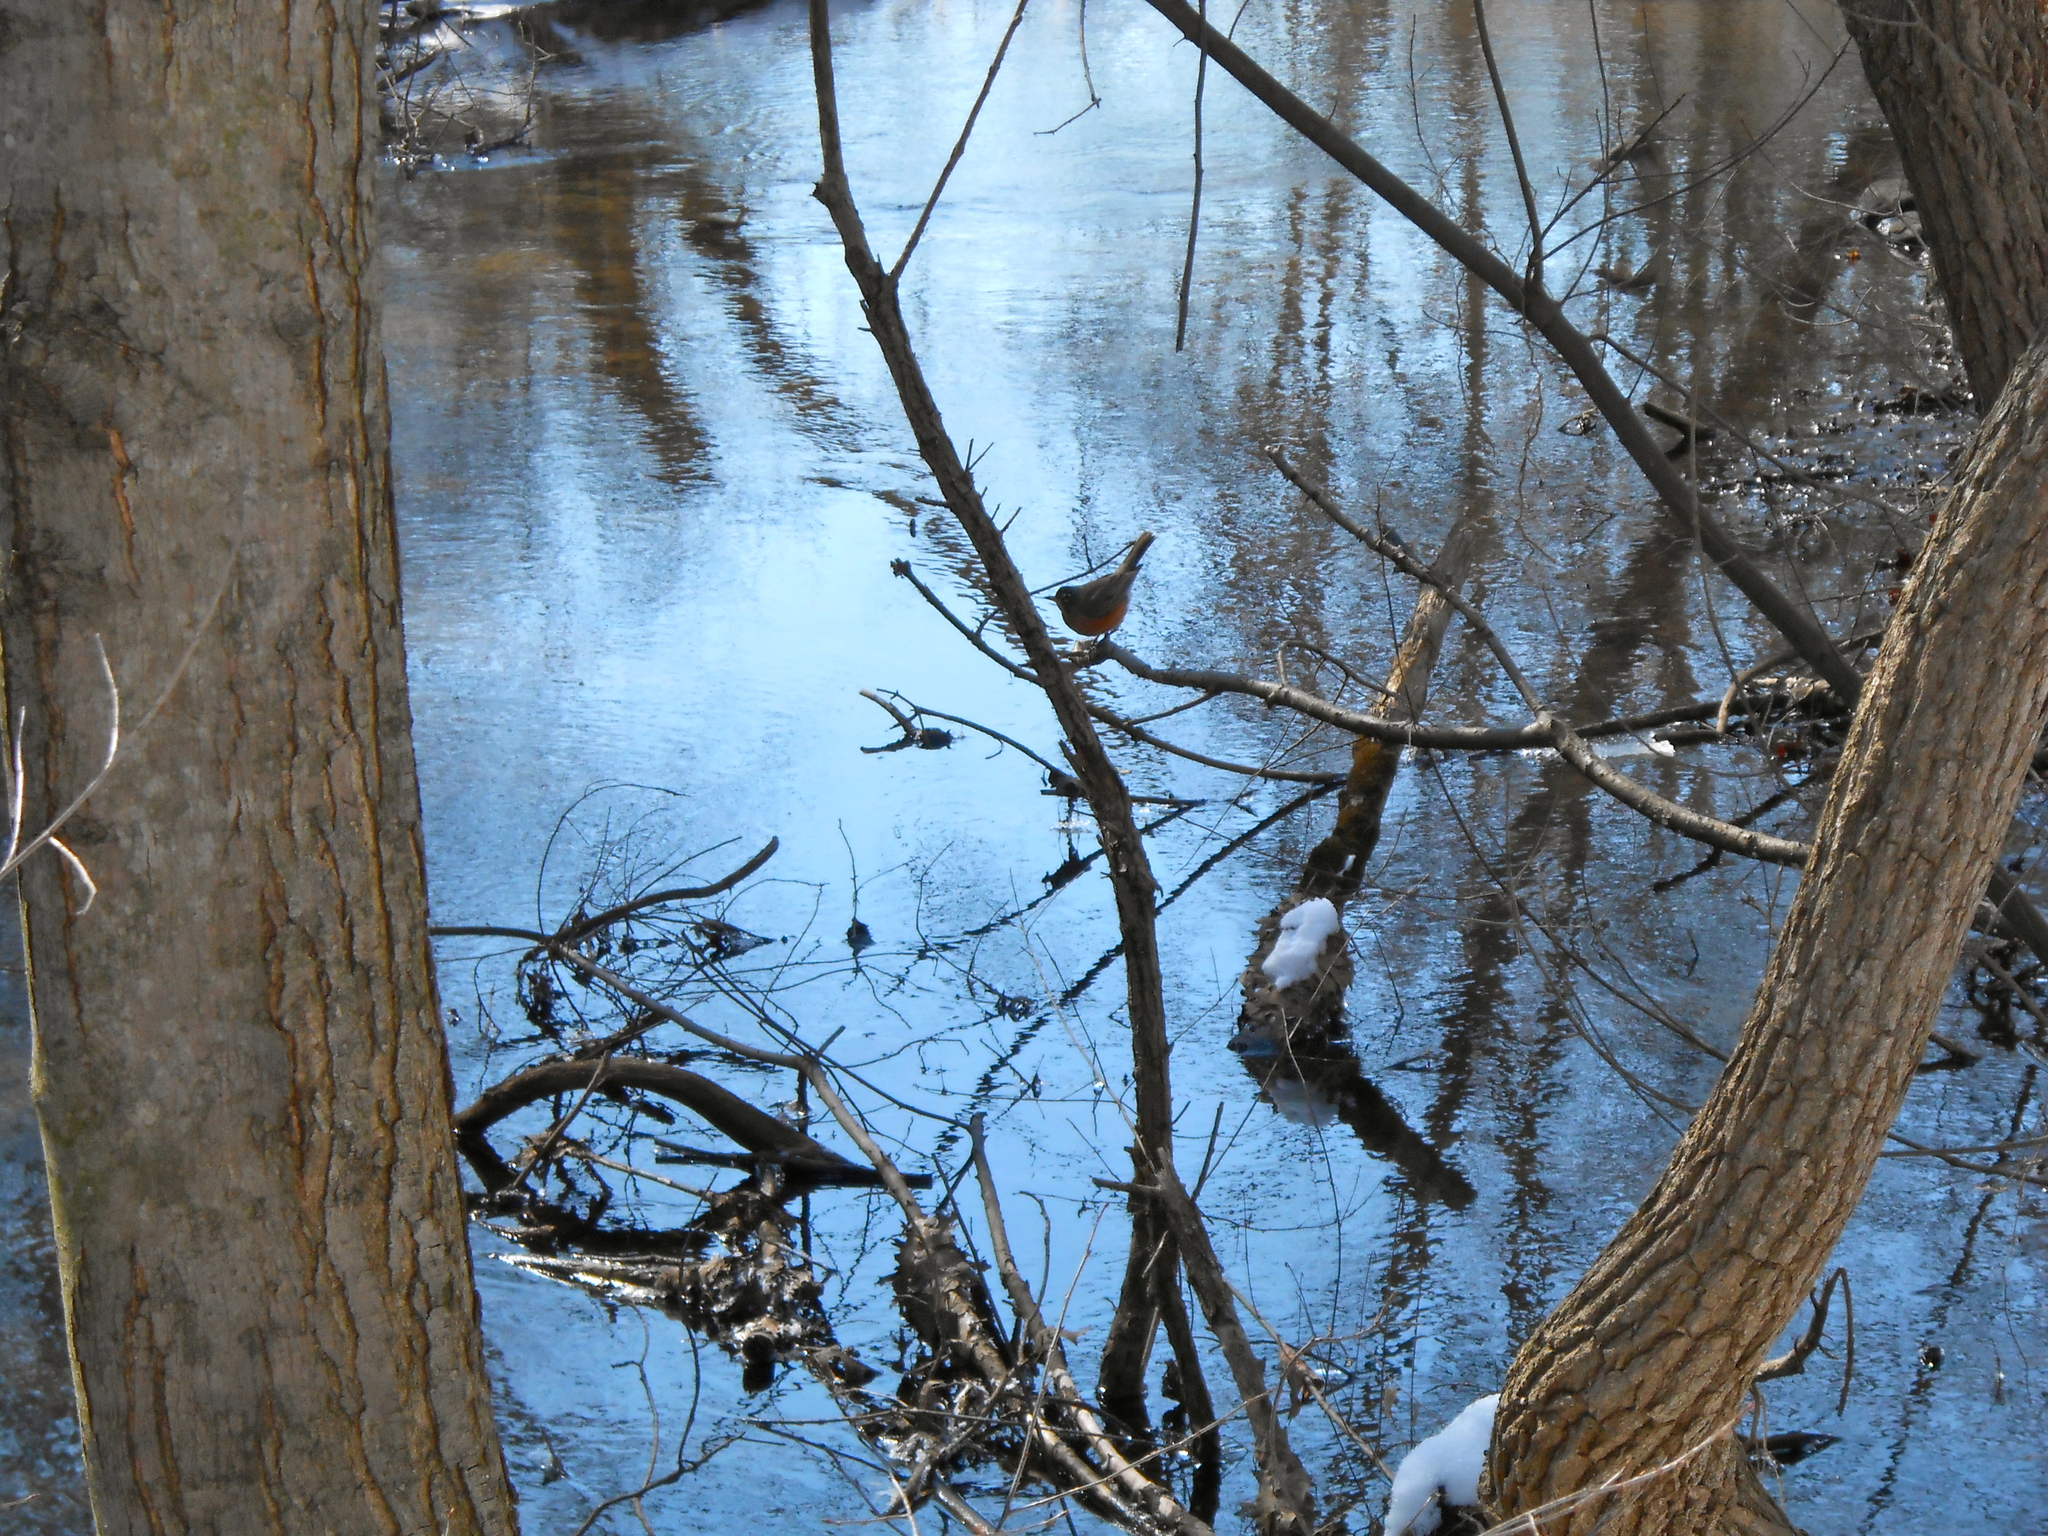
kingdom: Animalia
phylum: Chordata
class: Aves
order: Passeriformes
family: Turdidae
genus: Turdus
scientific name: Turdus migratorius
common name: American robin
